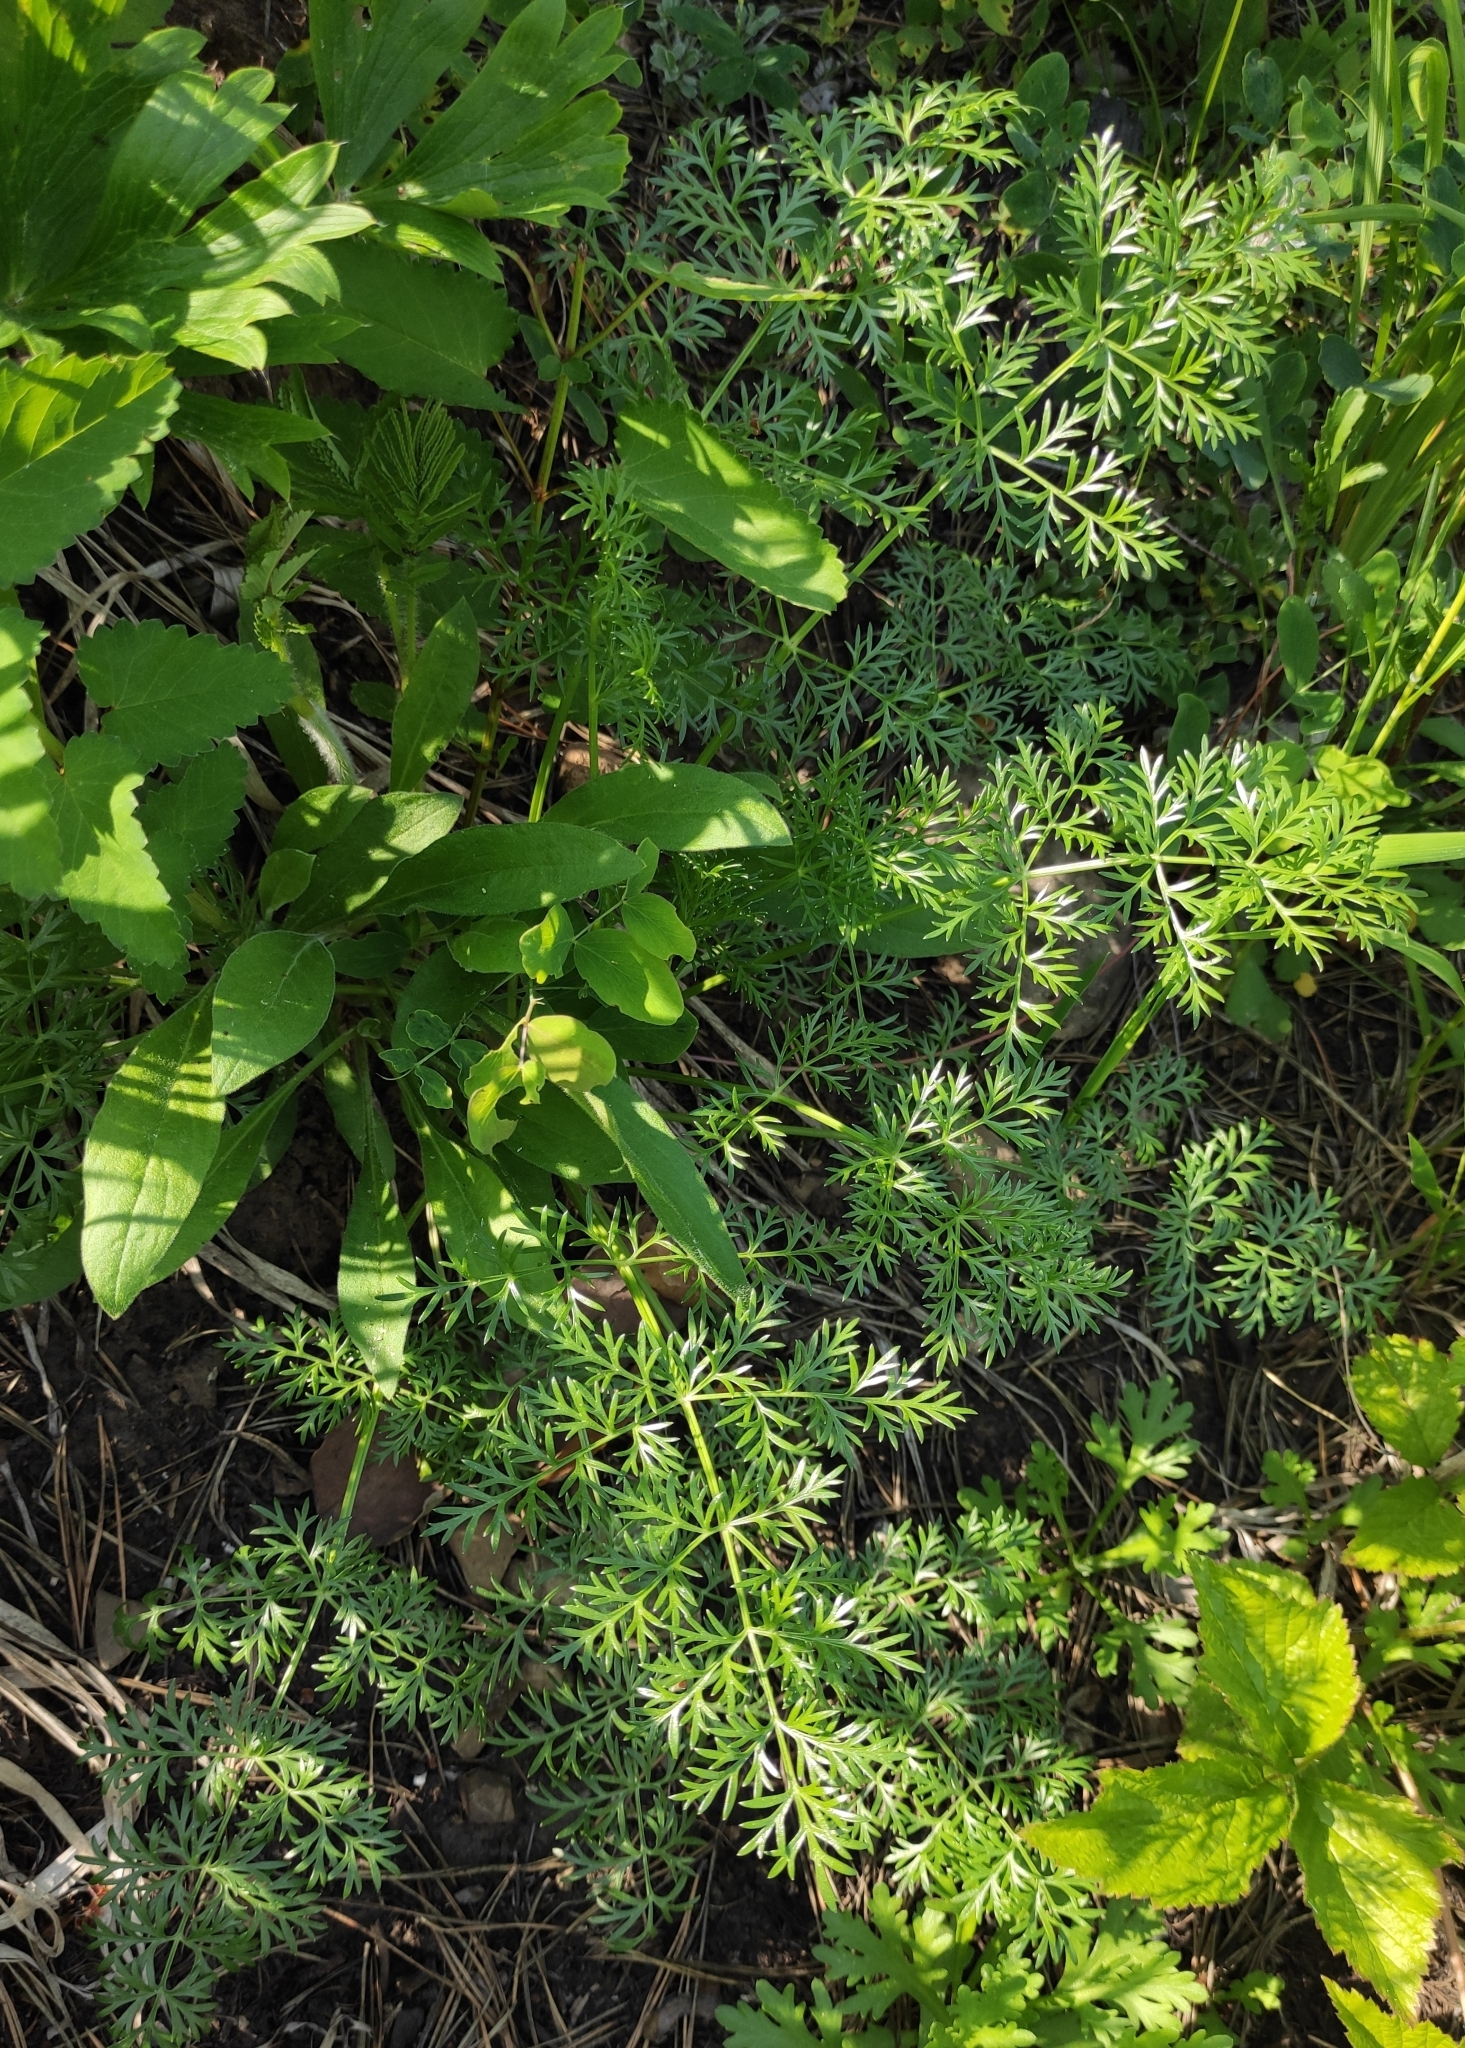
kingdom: Plantae
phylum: Tracheophyta
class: Magnoliopsida
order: Apiales
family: Apiaceae
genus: Kitagawia
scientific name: Kitagawia baicalensis
